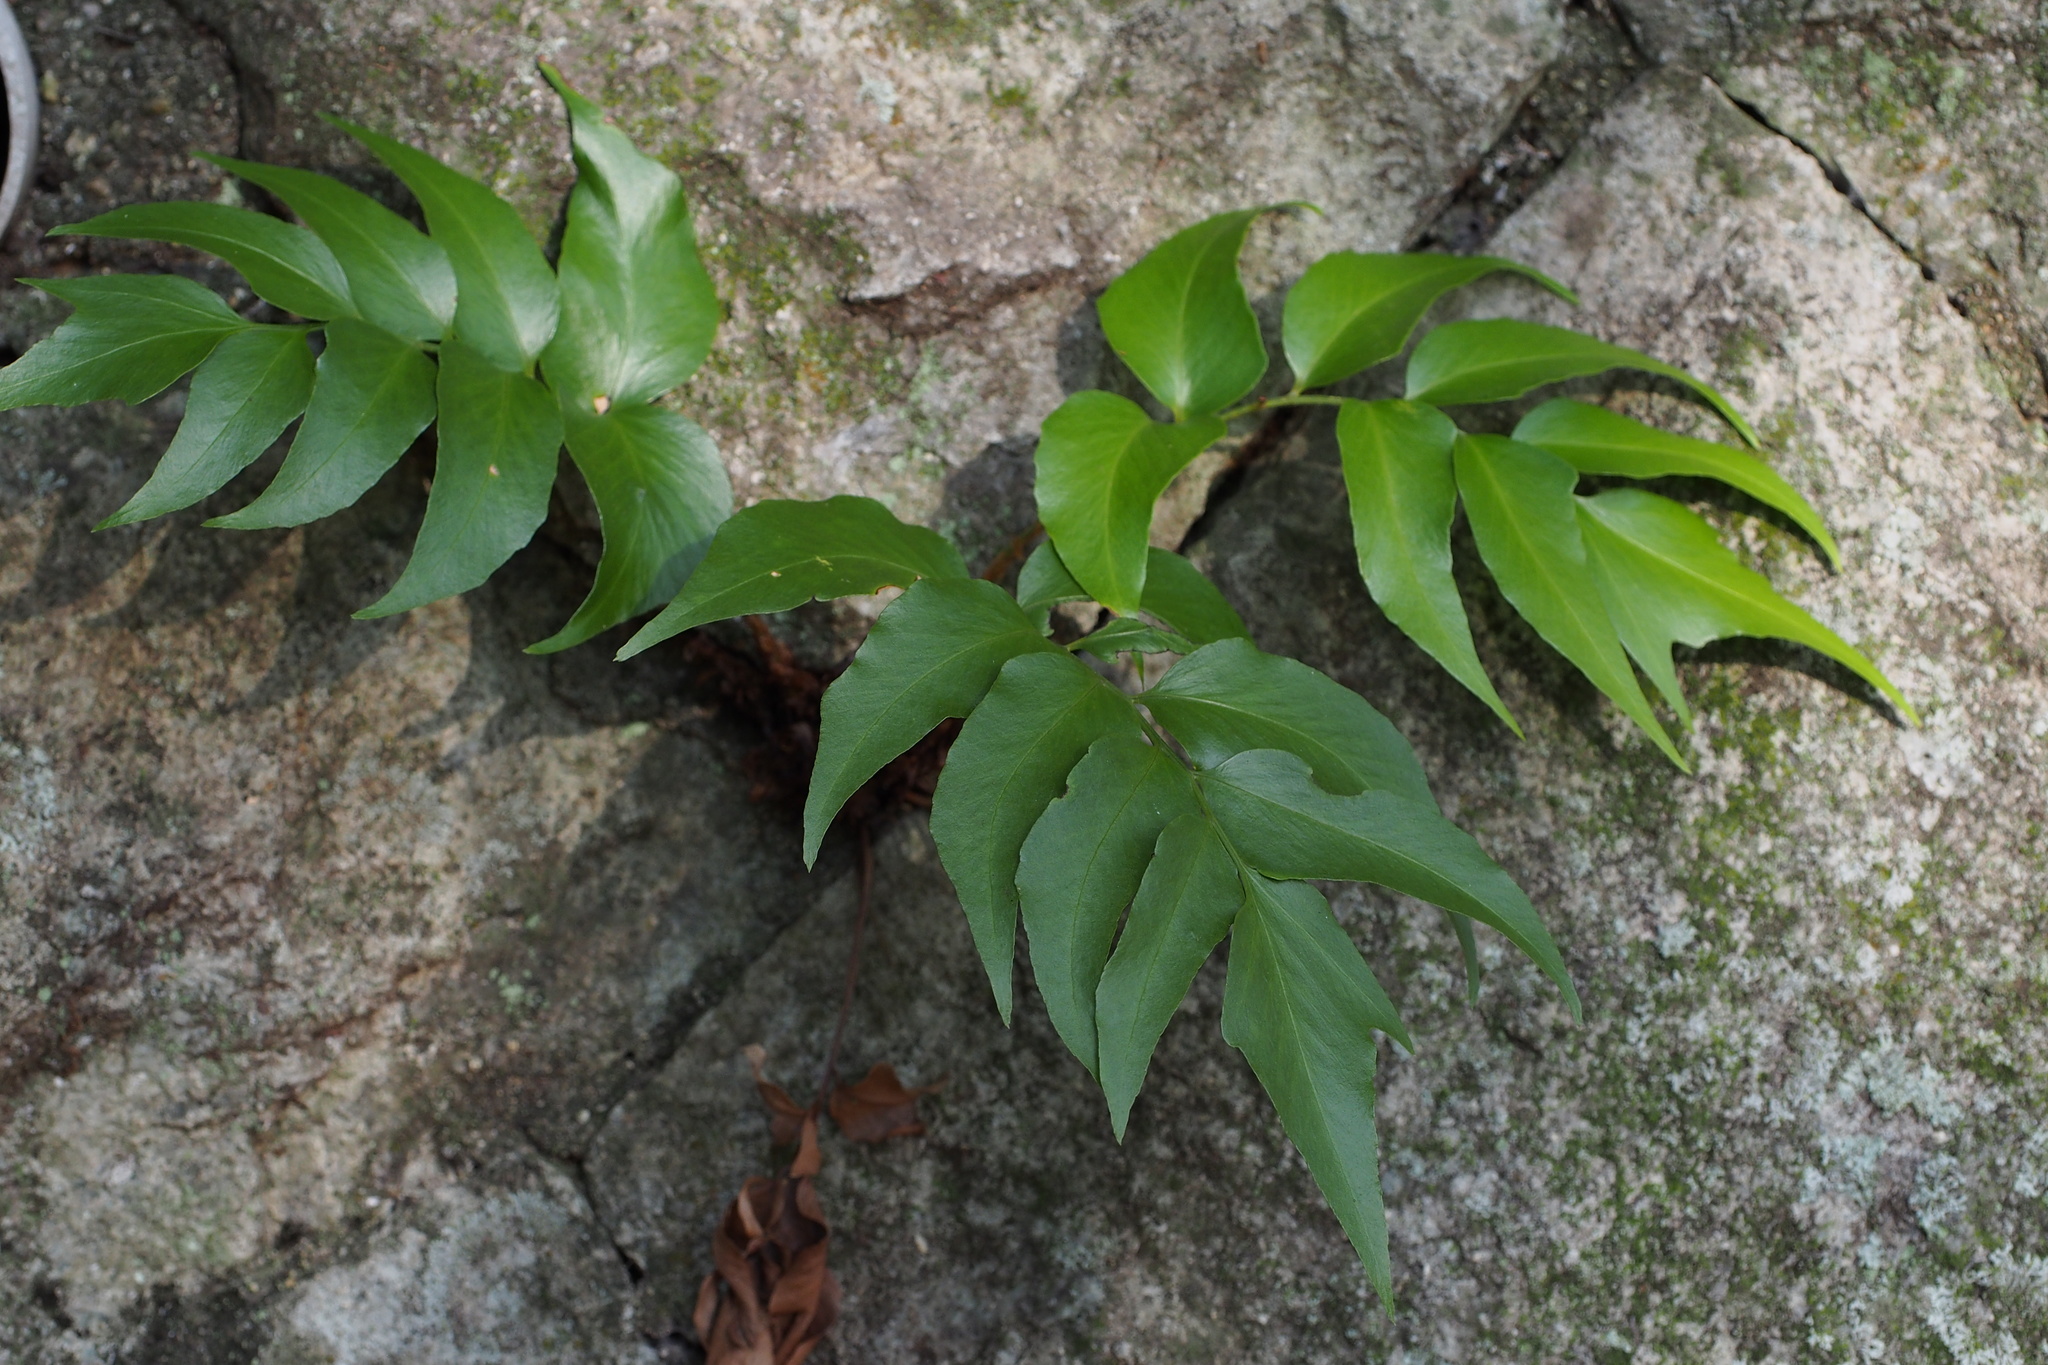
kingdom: Plantae
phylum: Tracheophyta
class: Polypodiopsida
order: Polypodiales
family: Dryopteridaceae
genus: Cyrtomium
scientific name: Cyrtomium fortunei
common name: Asian netvein hollyfern
